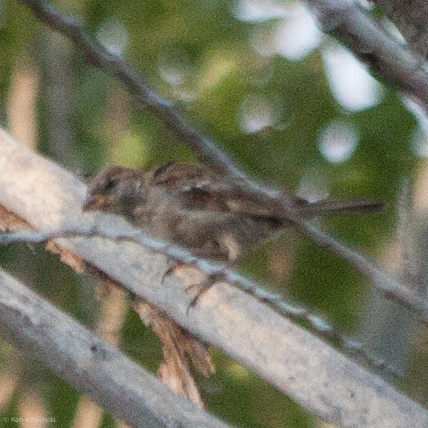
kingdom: Animalia
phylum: Chordata
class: Aves
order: Passeriformes
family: Passeridae
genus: Passer
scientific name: Passer domesticus
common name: House sparrow
